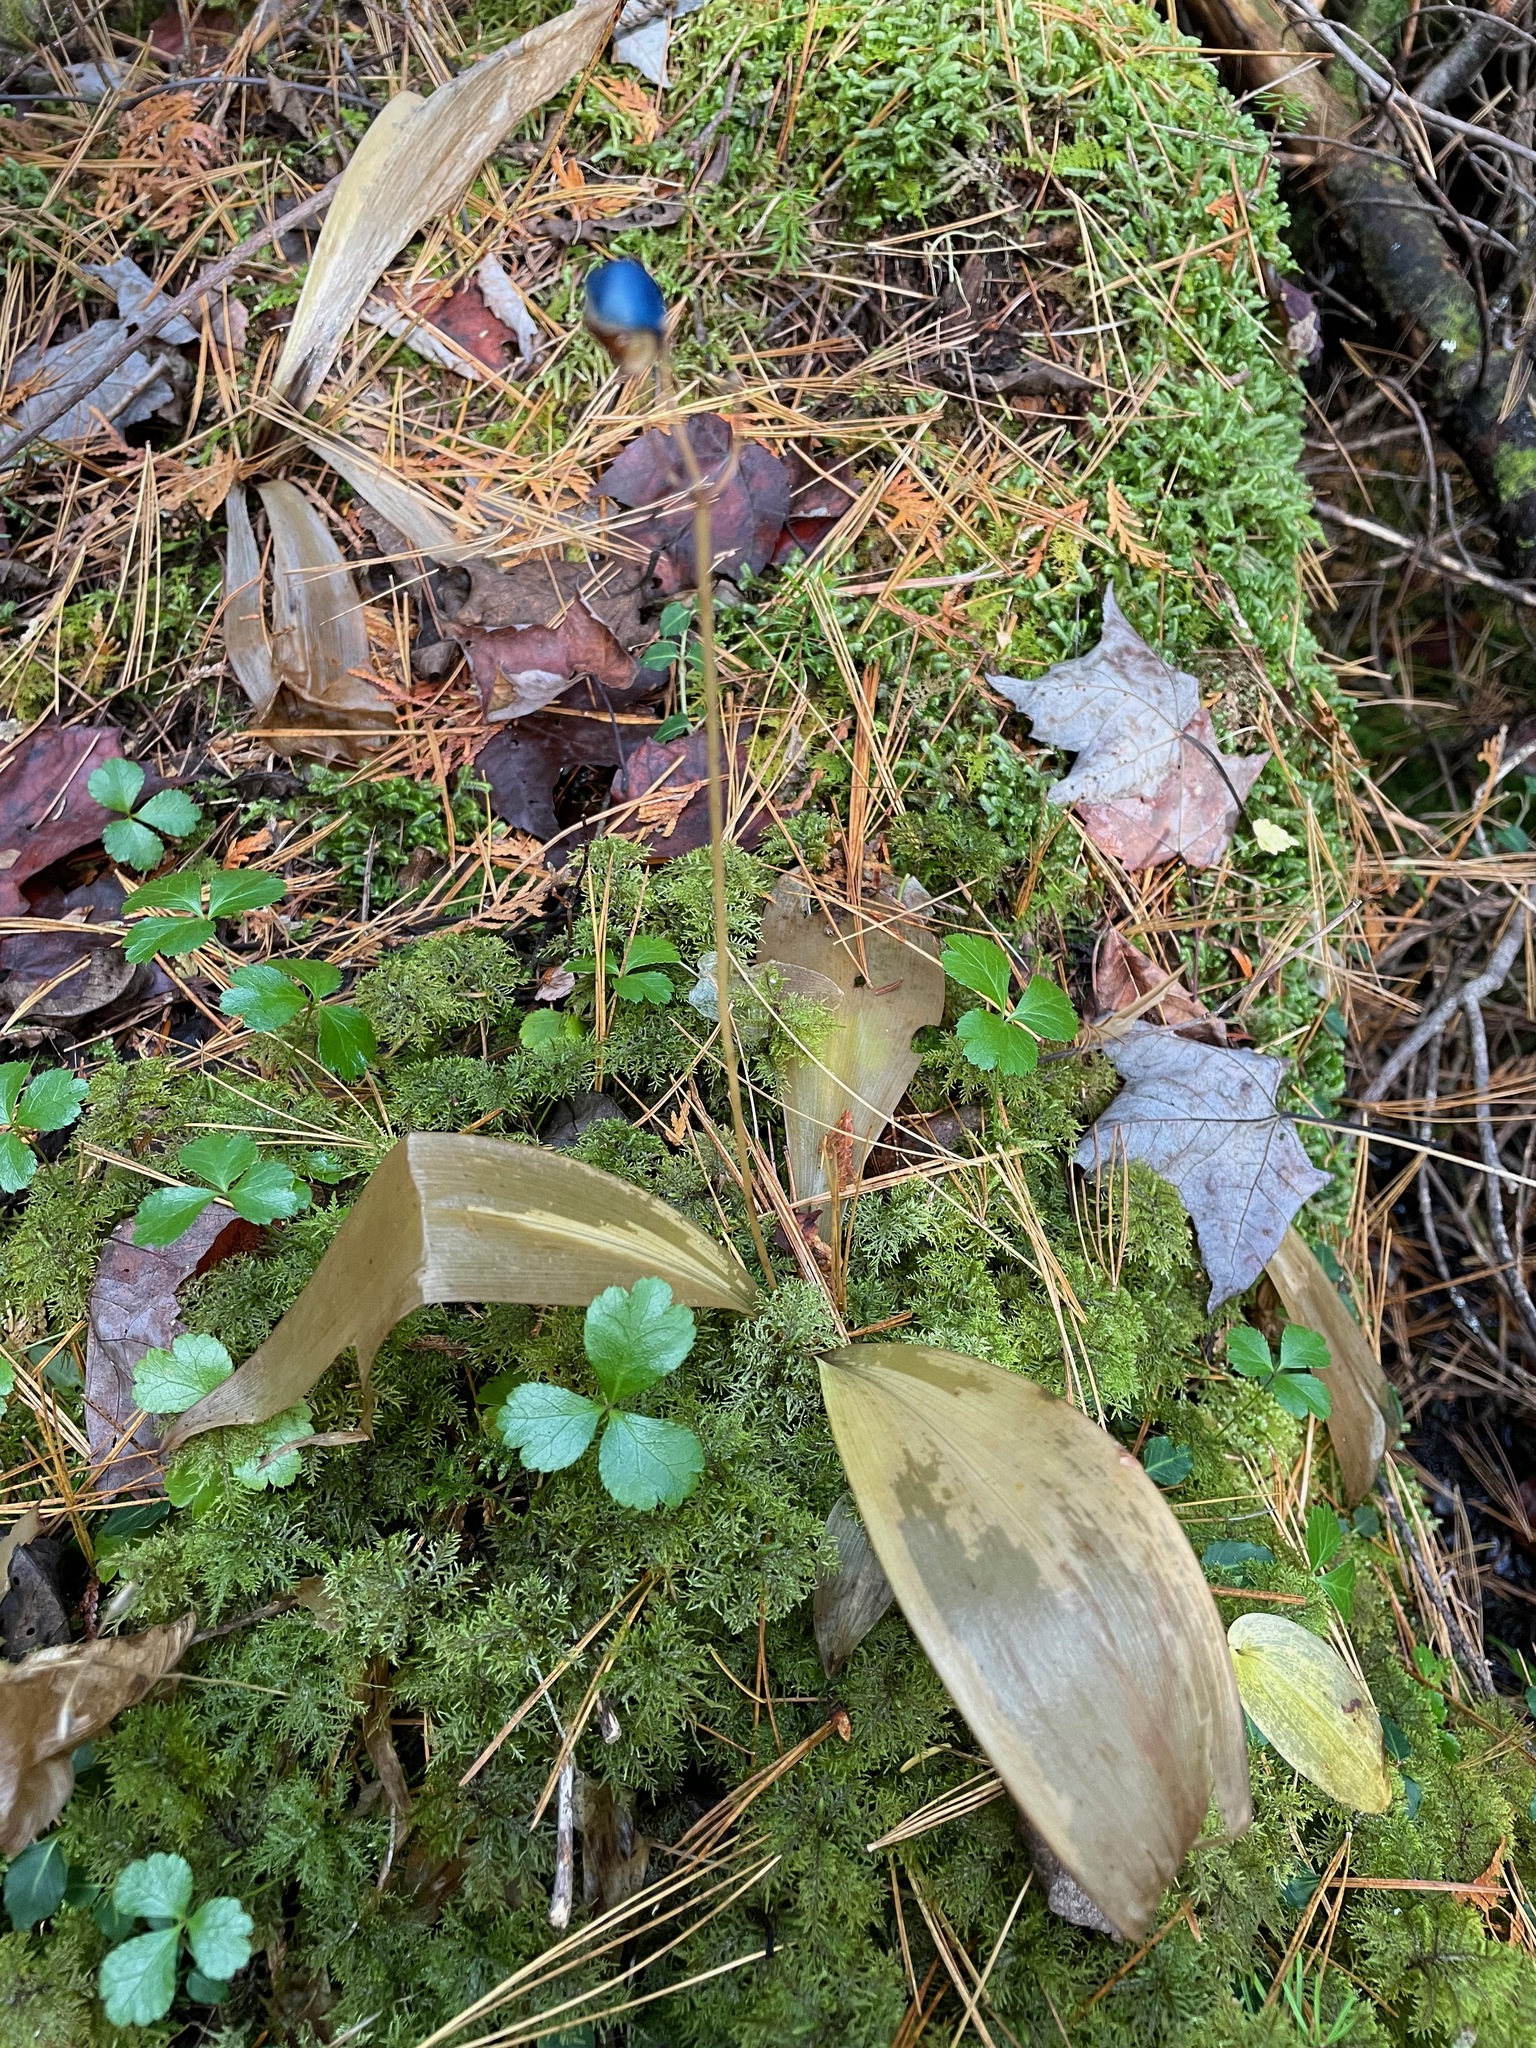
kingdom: Plantae
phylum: Tracheophyta
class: Liliopsida
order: Liliales
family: Liliaceae
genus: Clintonia
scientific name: Clintonia borealis
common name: Yellow clintonia
